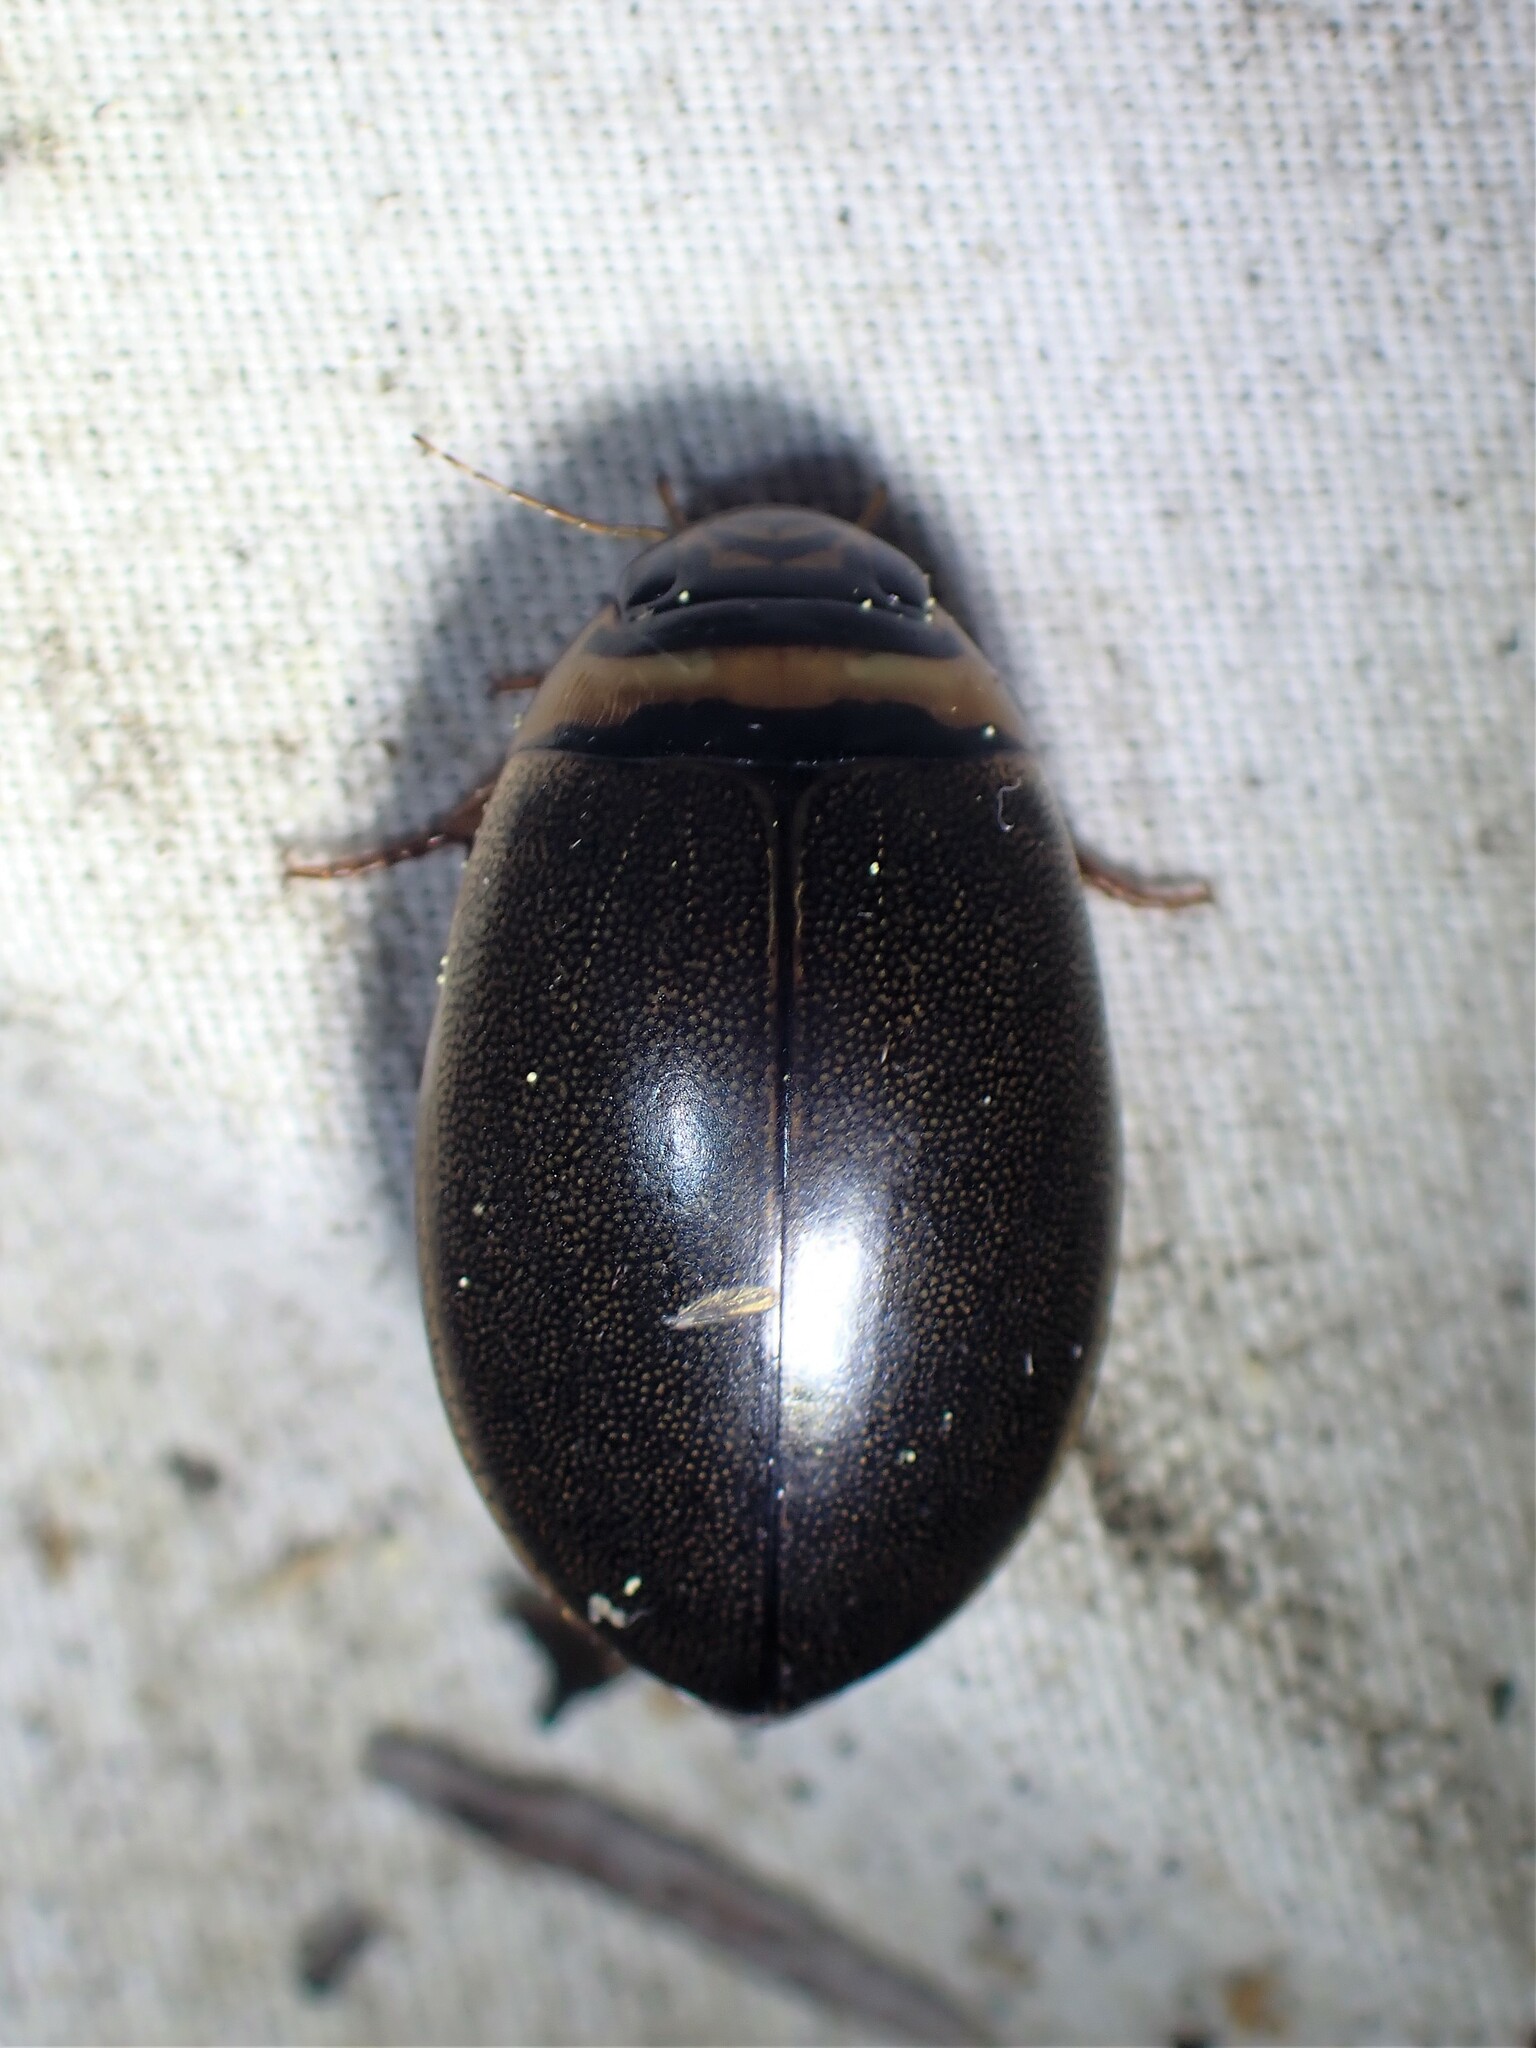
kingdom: Animalia
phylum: Arthropoda
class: Insecta
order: Coleoptera
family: Dytiscidae
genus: Graphoderus
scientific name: Graphoderus fascicollis
